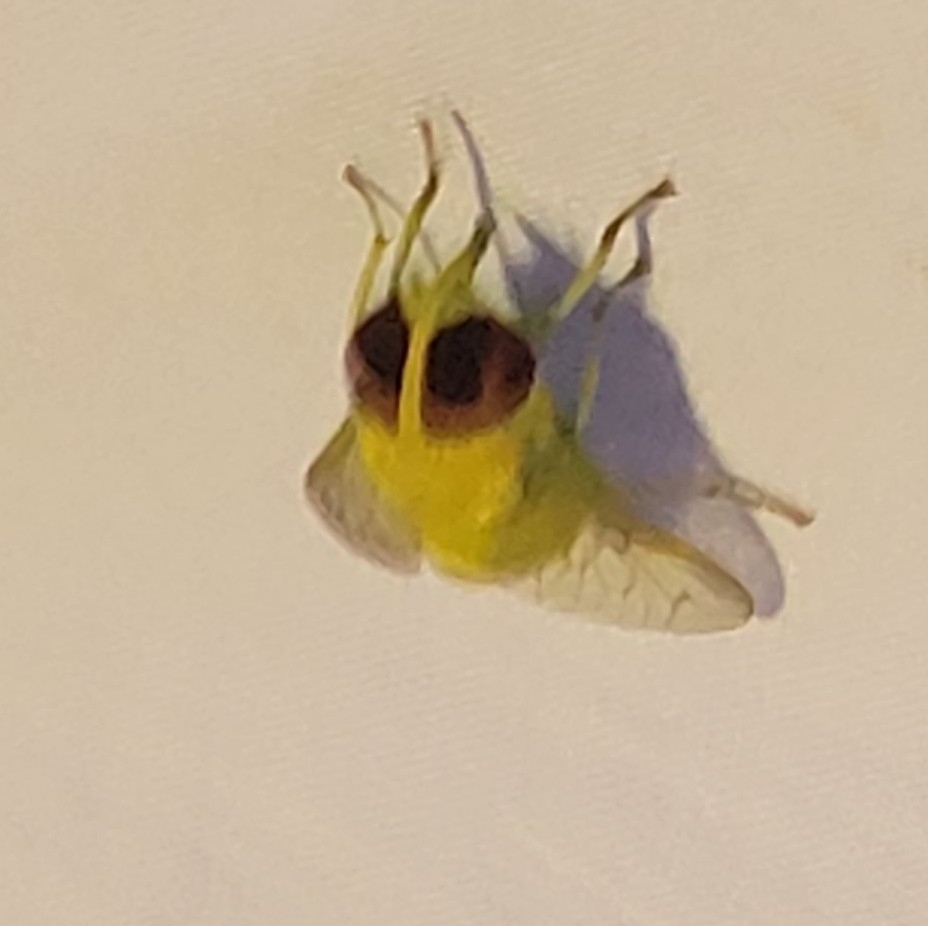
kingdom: Animalia
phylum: Arthropoda
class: Insecta
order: Diptera
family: Tabanidae
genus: Chlorotabanus
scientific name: Chlorotabanus crepuscularis
